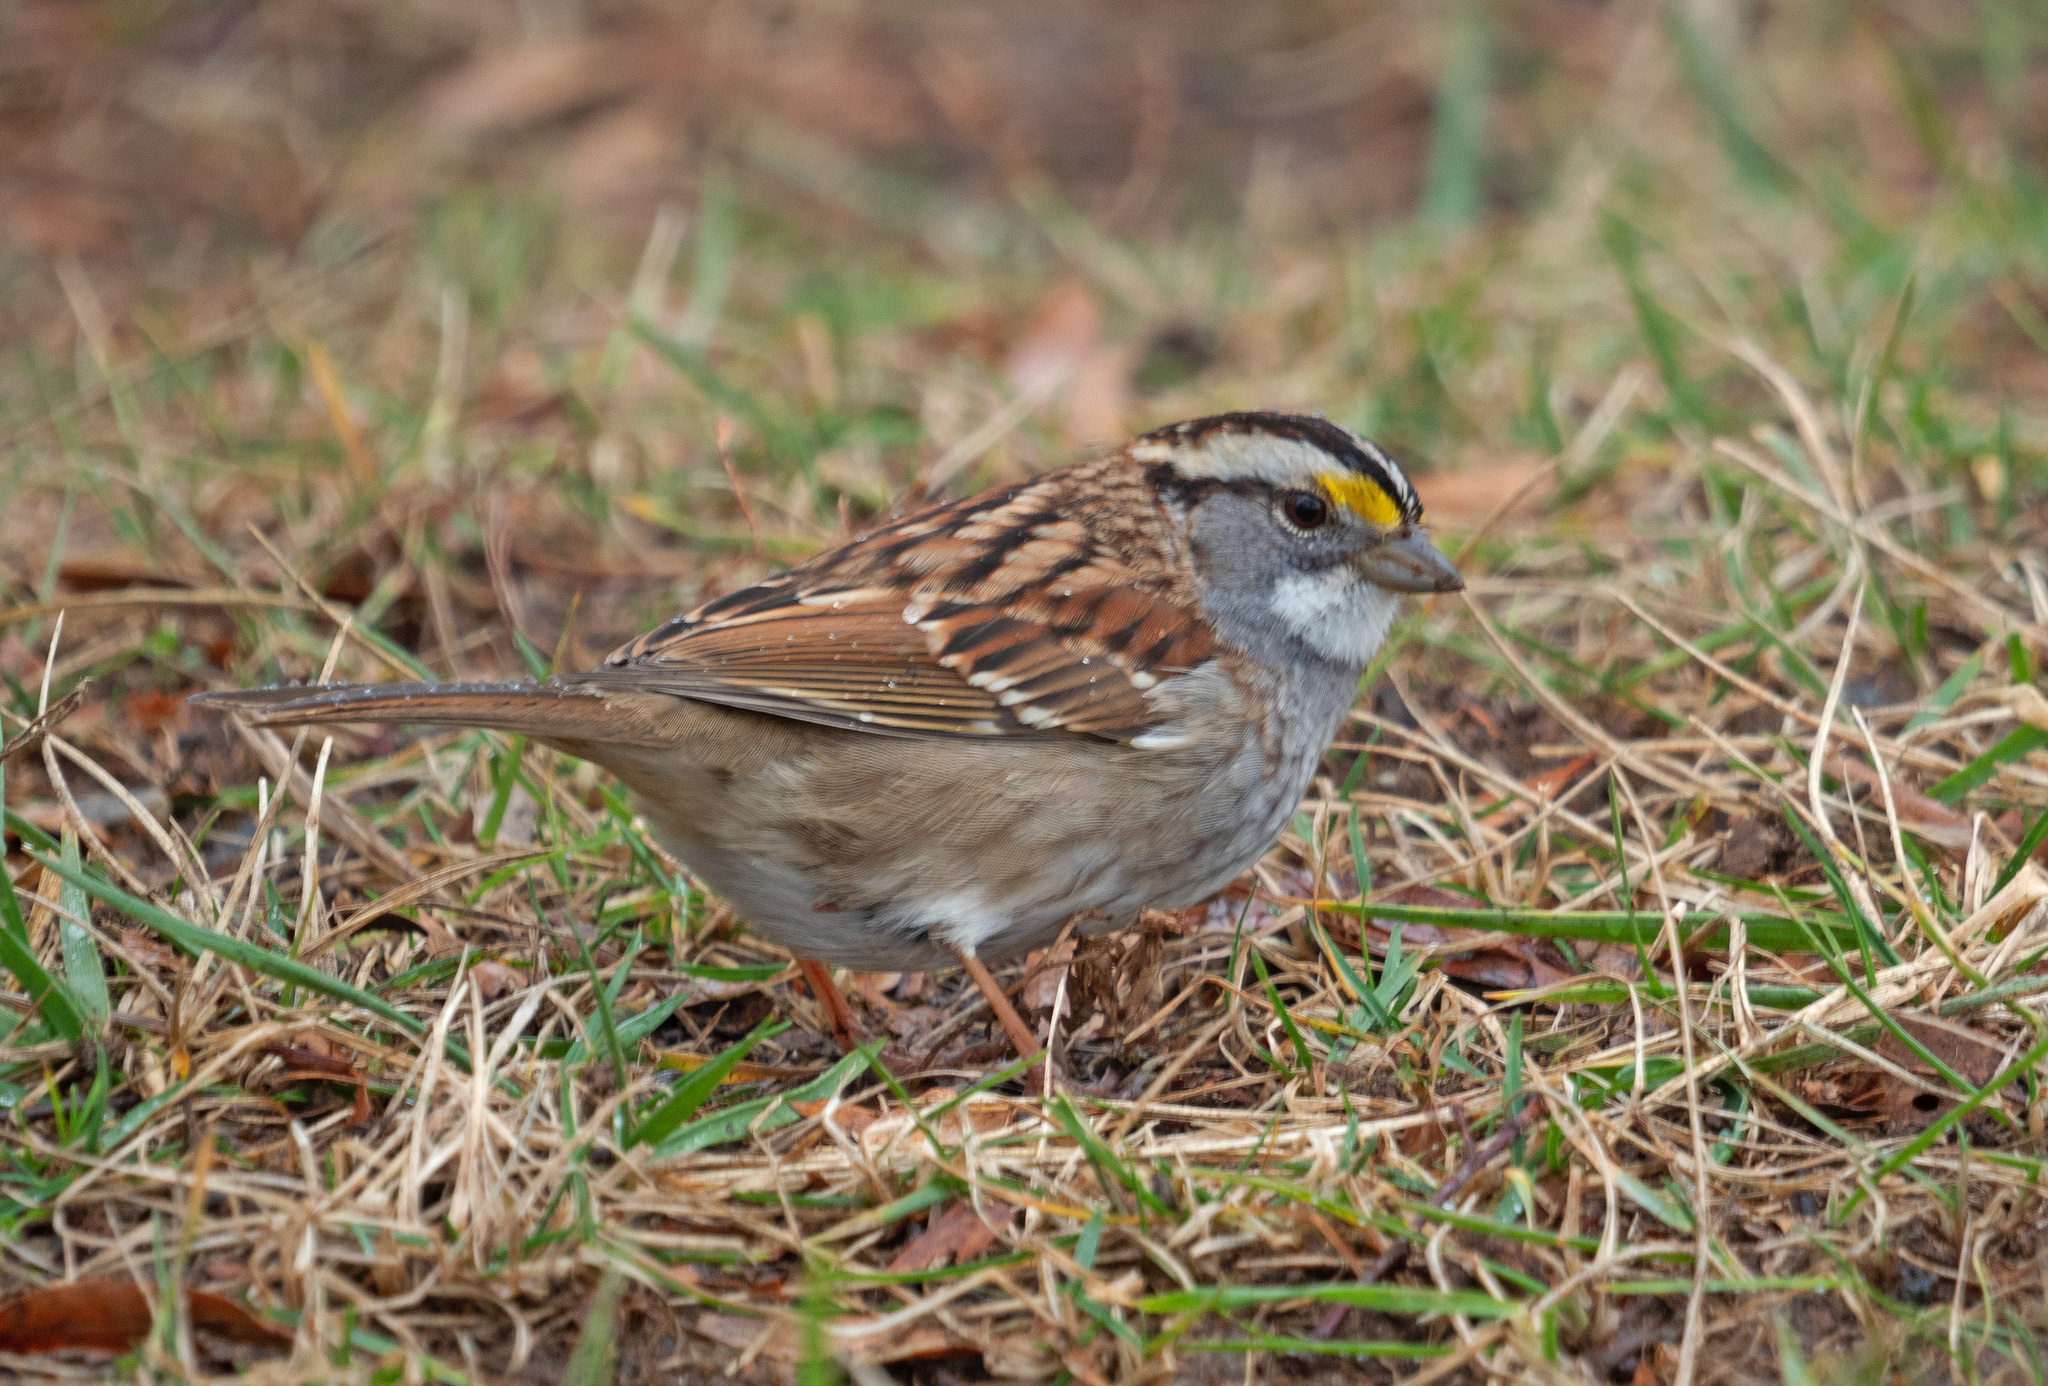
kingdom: Animalia
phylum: Chordata
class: Aves
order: Passeriformes
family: Passerellidae
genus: Zonotrichia
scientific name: Zonotrichia albicollis
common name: White-throated sparrow
